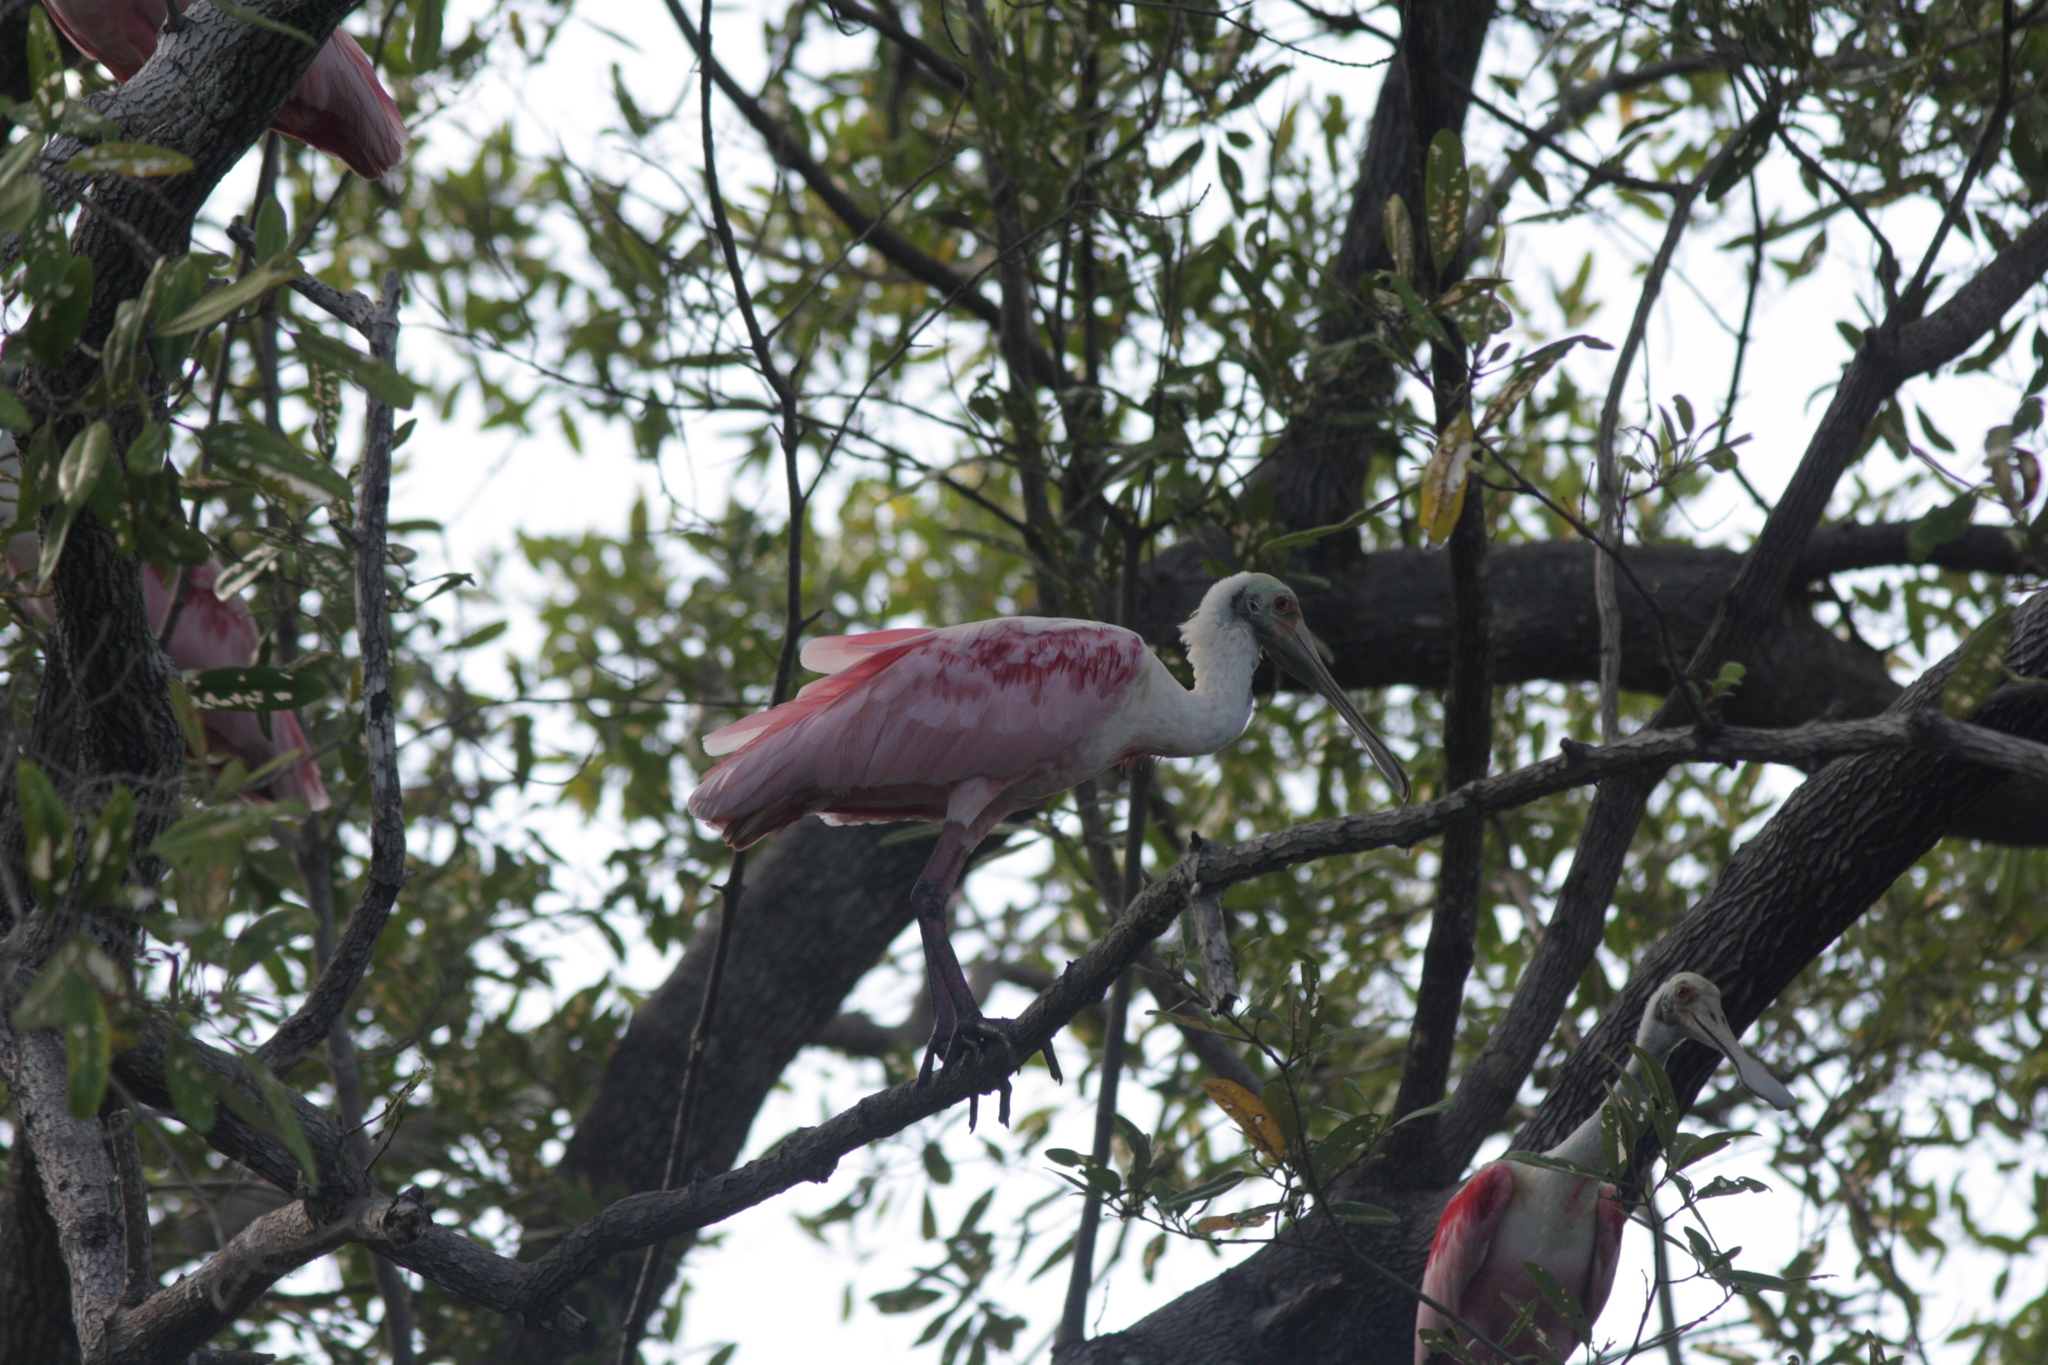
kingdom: Animalia
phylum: Chordata
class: Aves
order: Pelecaniformes
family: Threskiornithidae
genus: Platalea
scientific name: Platalea ajaja
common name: Roseate spoonbill
